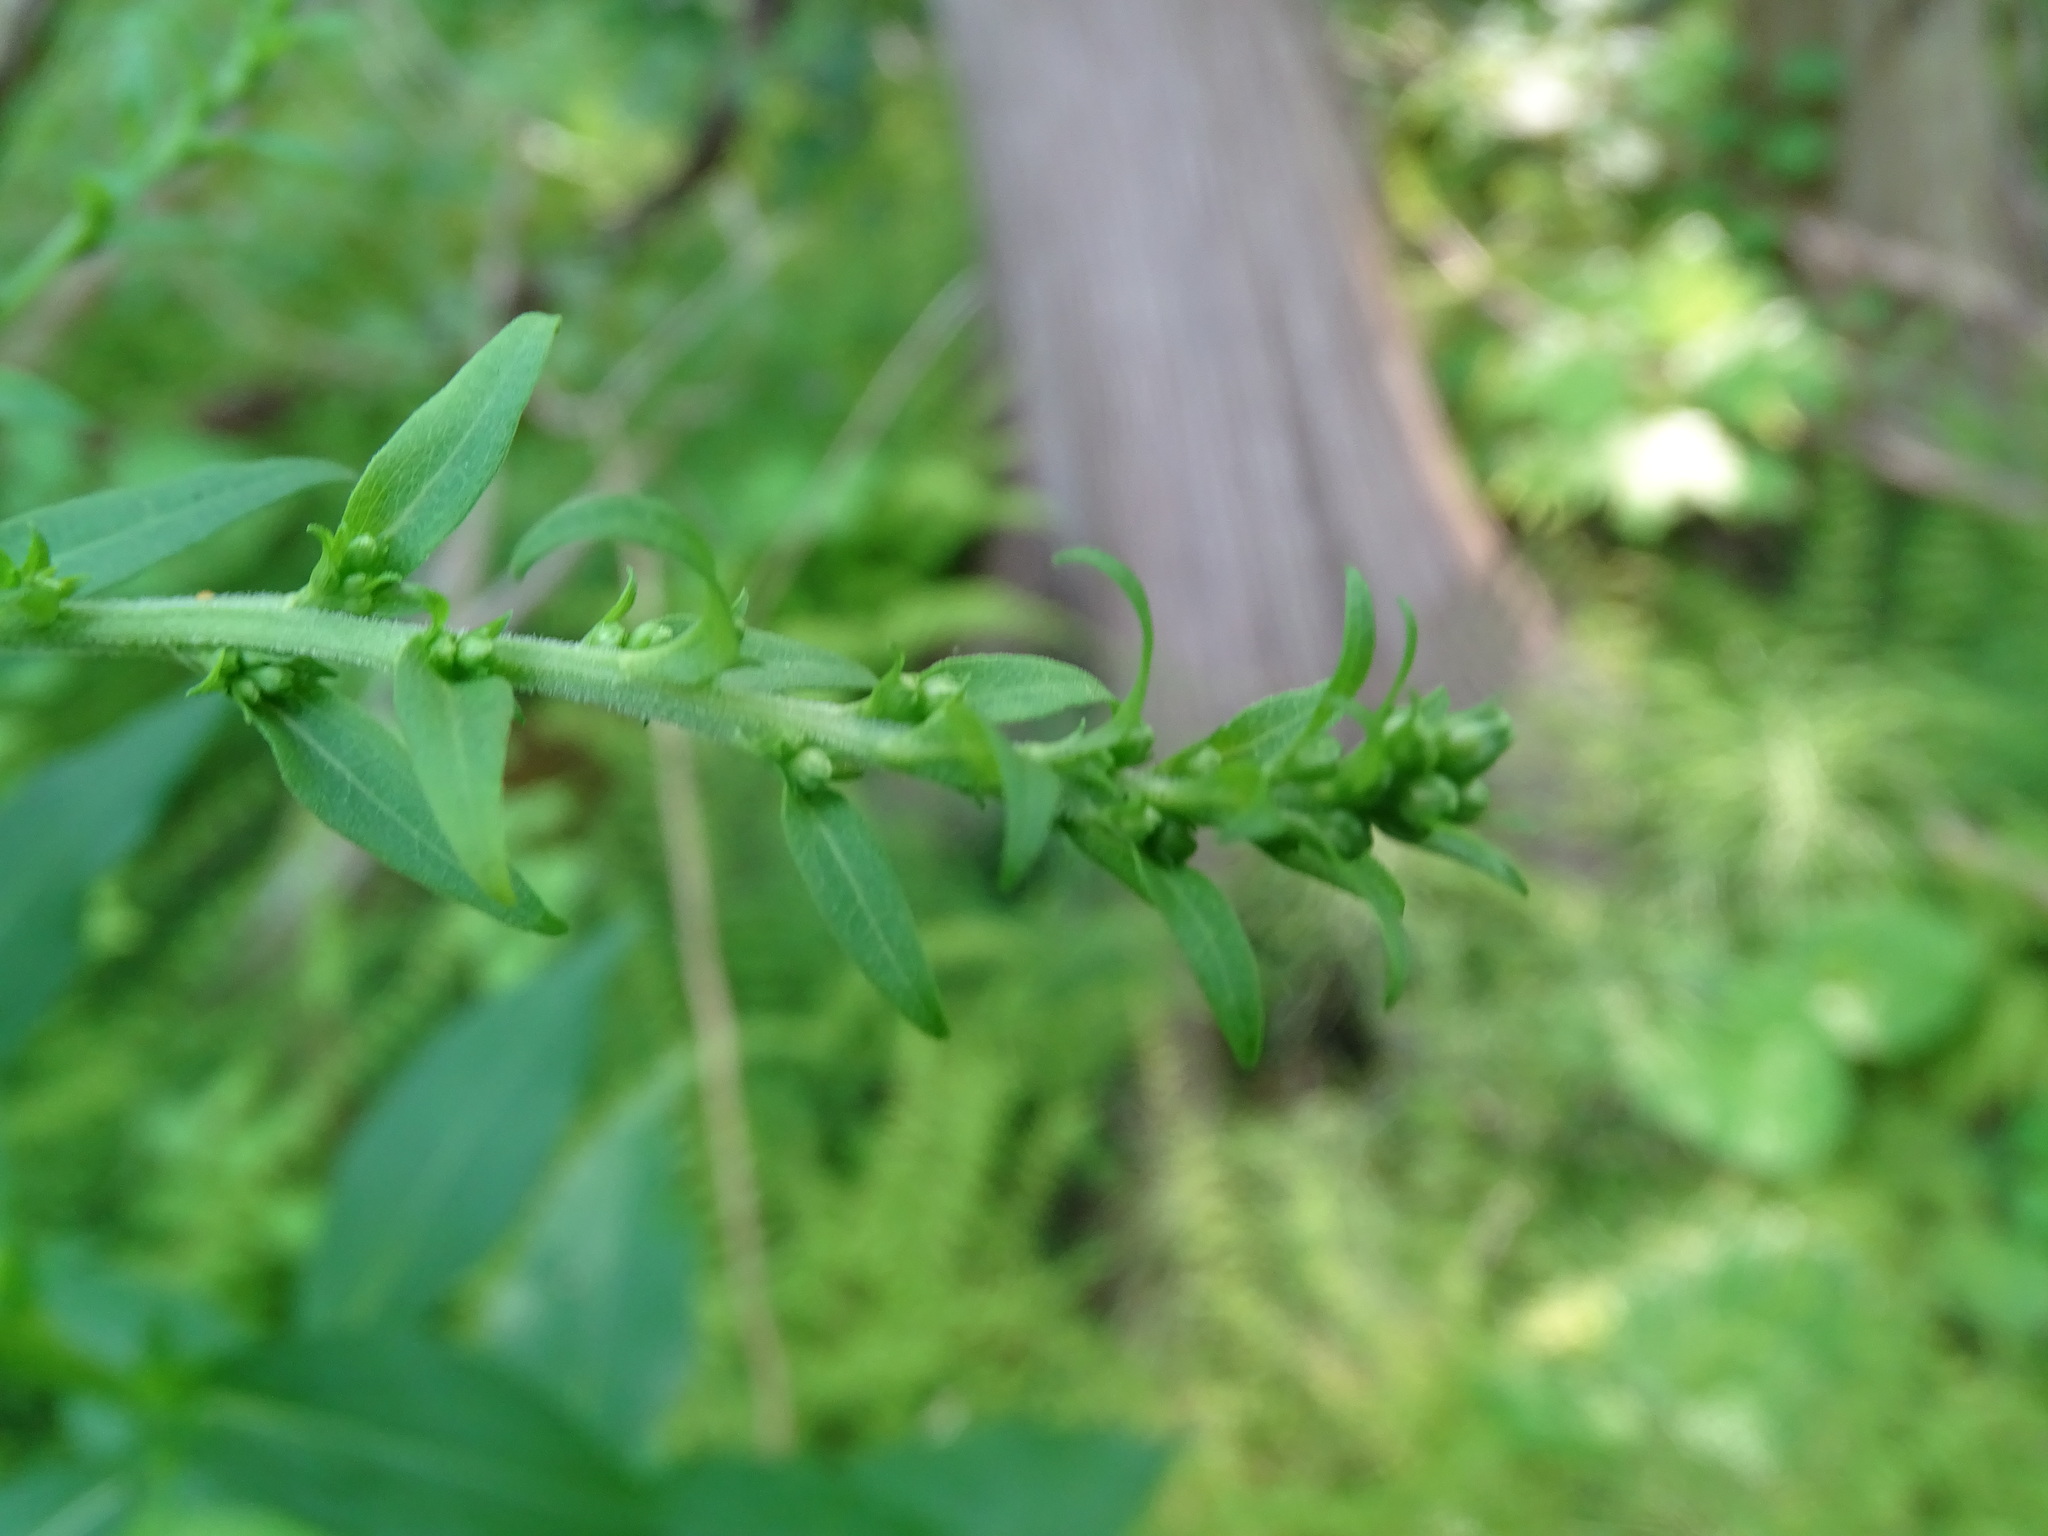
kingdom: Plantae
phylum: Tracheophyta
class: Magnoliopsida
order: Asterales
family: Asteraceae
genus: Solidago
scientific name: Solidago patula
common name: Rough-leaf goldenrod
